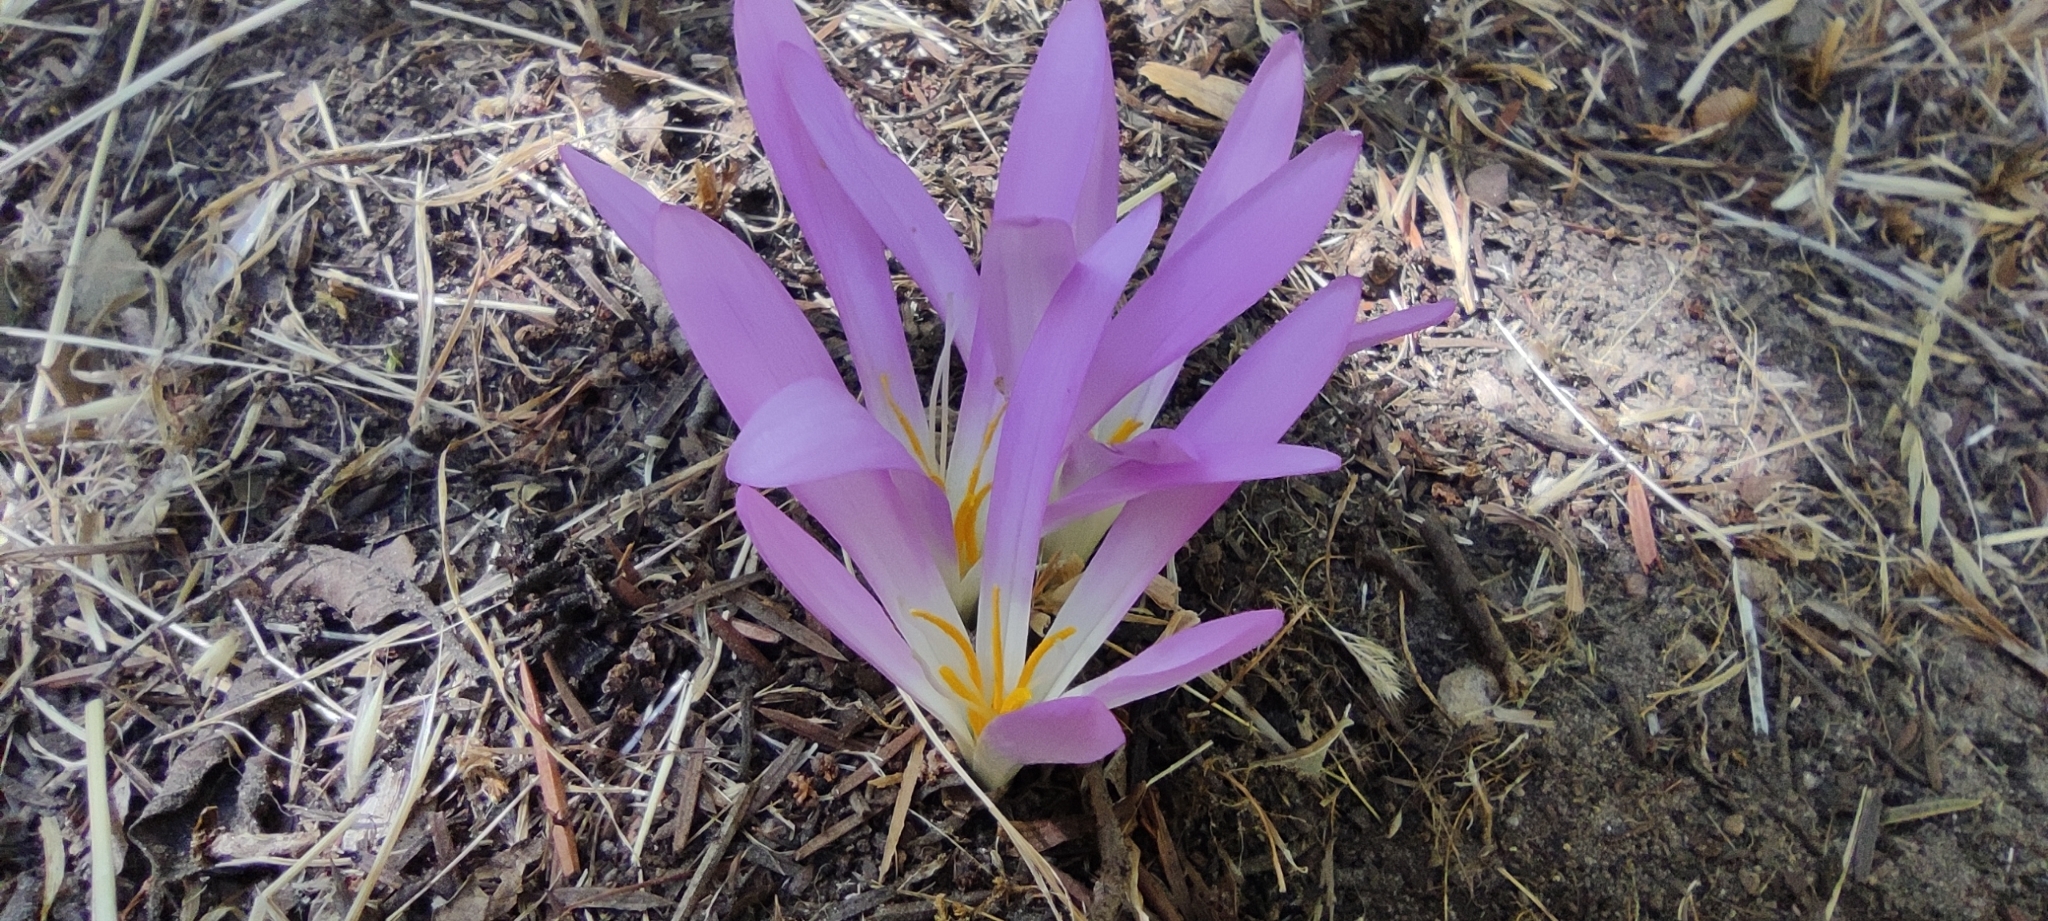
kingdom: Plantae
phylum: Tracheophyta
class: Liliopsida
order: Liliales
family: Colchicaceae
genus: Colchicum
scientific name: Colchicum montanum
